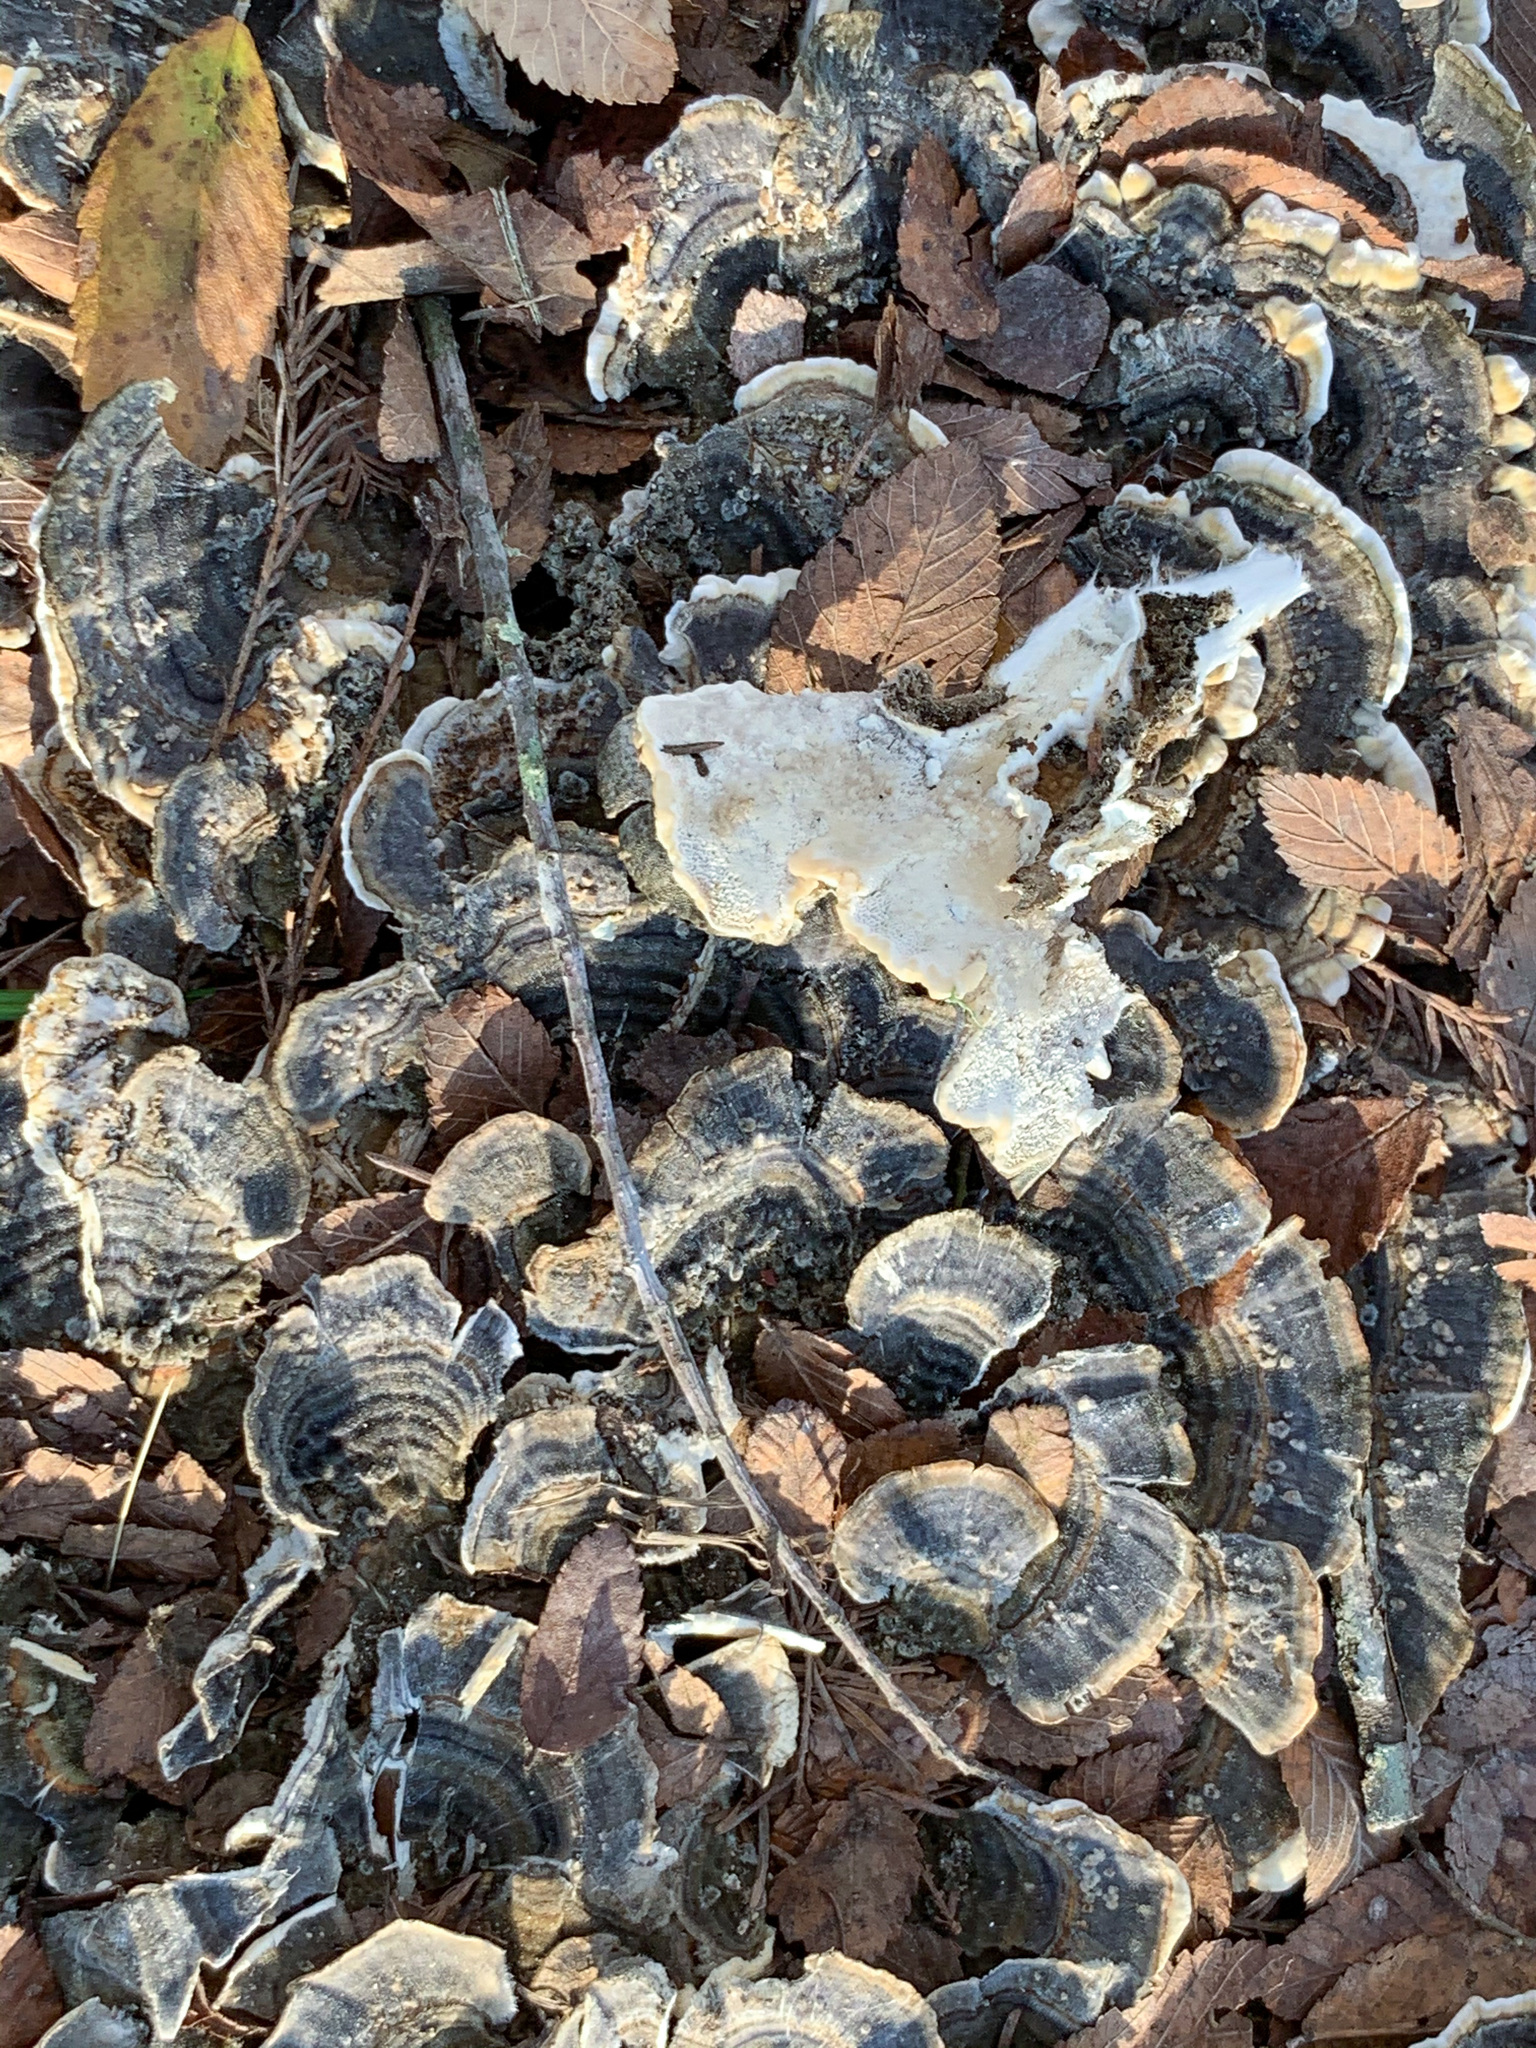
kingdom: Fungi
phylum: Basidiomycota
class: Agaricomycetes
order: Polyporales
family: Polyporaceae
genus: Trametes
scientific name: Trametes versicolor
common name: Turkeytail
